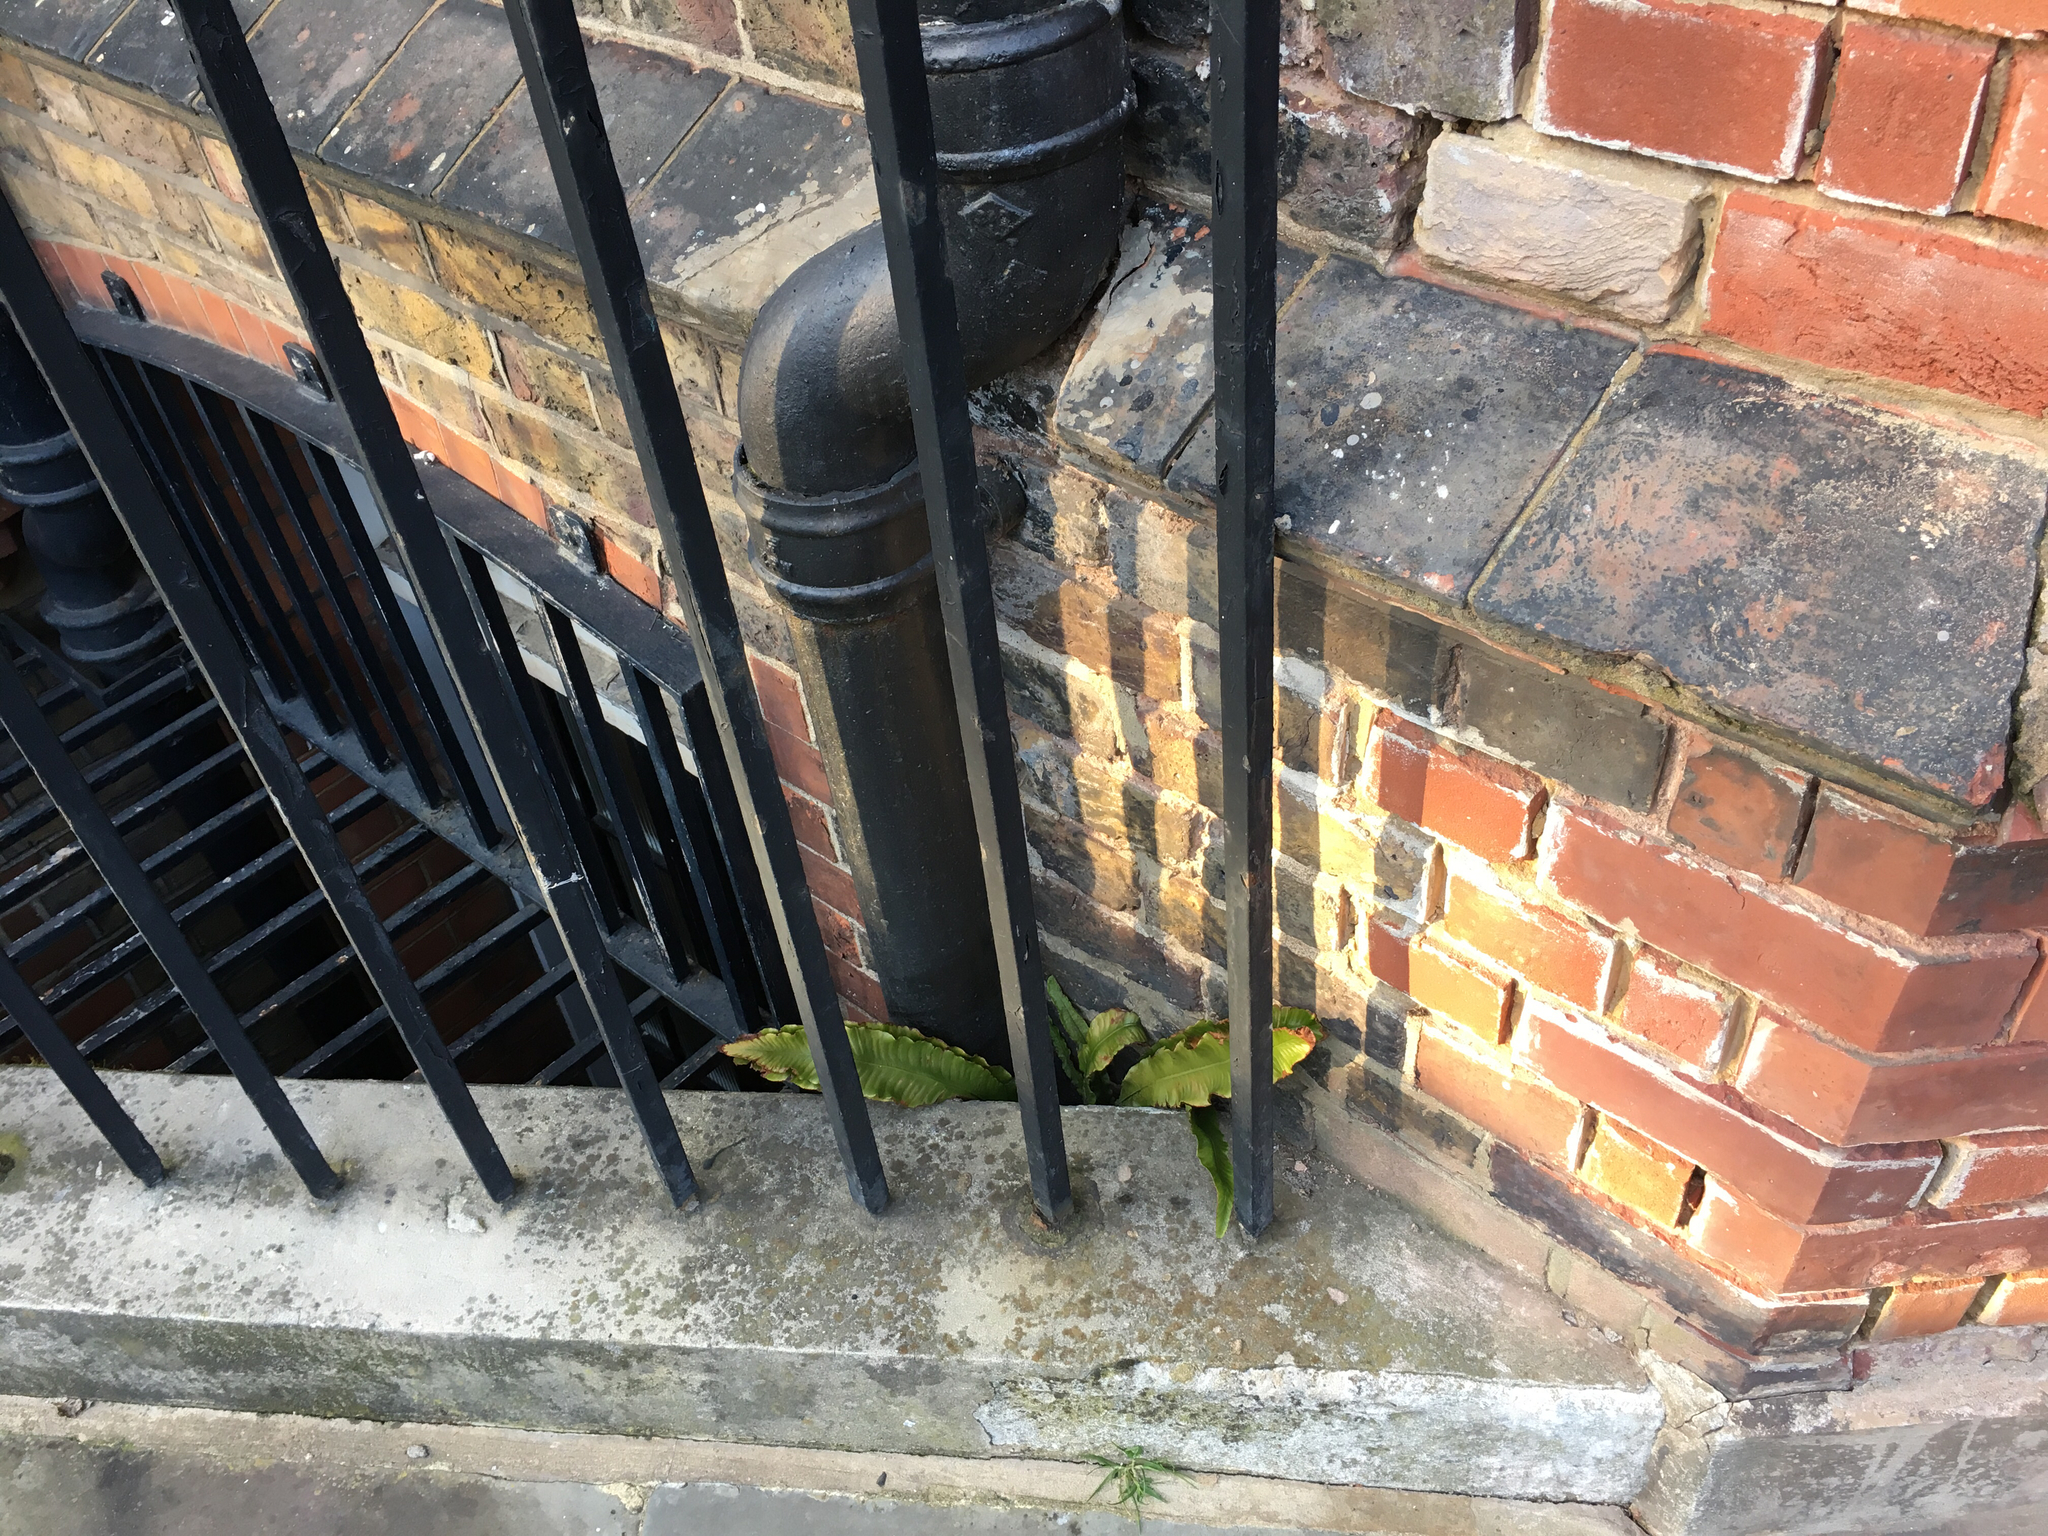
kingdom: Plantae
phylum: Tracheophyta
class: Polypodiopsida
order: Polypodiales
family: Aspleniaceae
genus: Asplenium
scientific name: Asplenium scolopendrium
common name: Hart's-tongue fern
